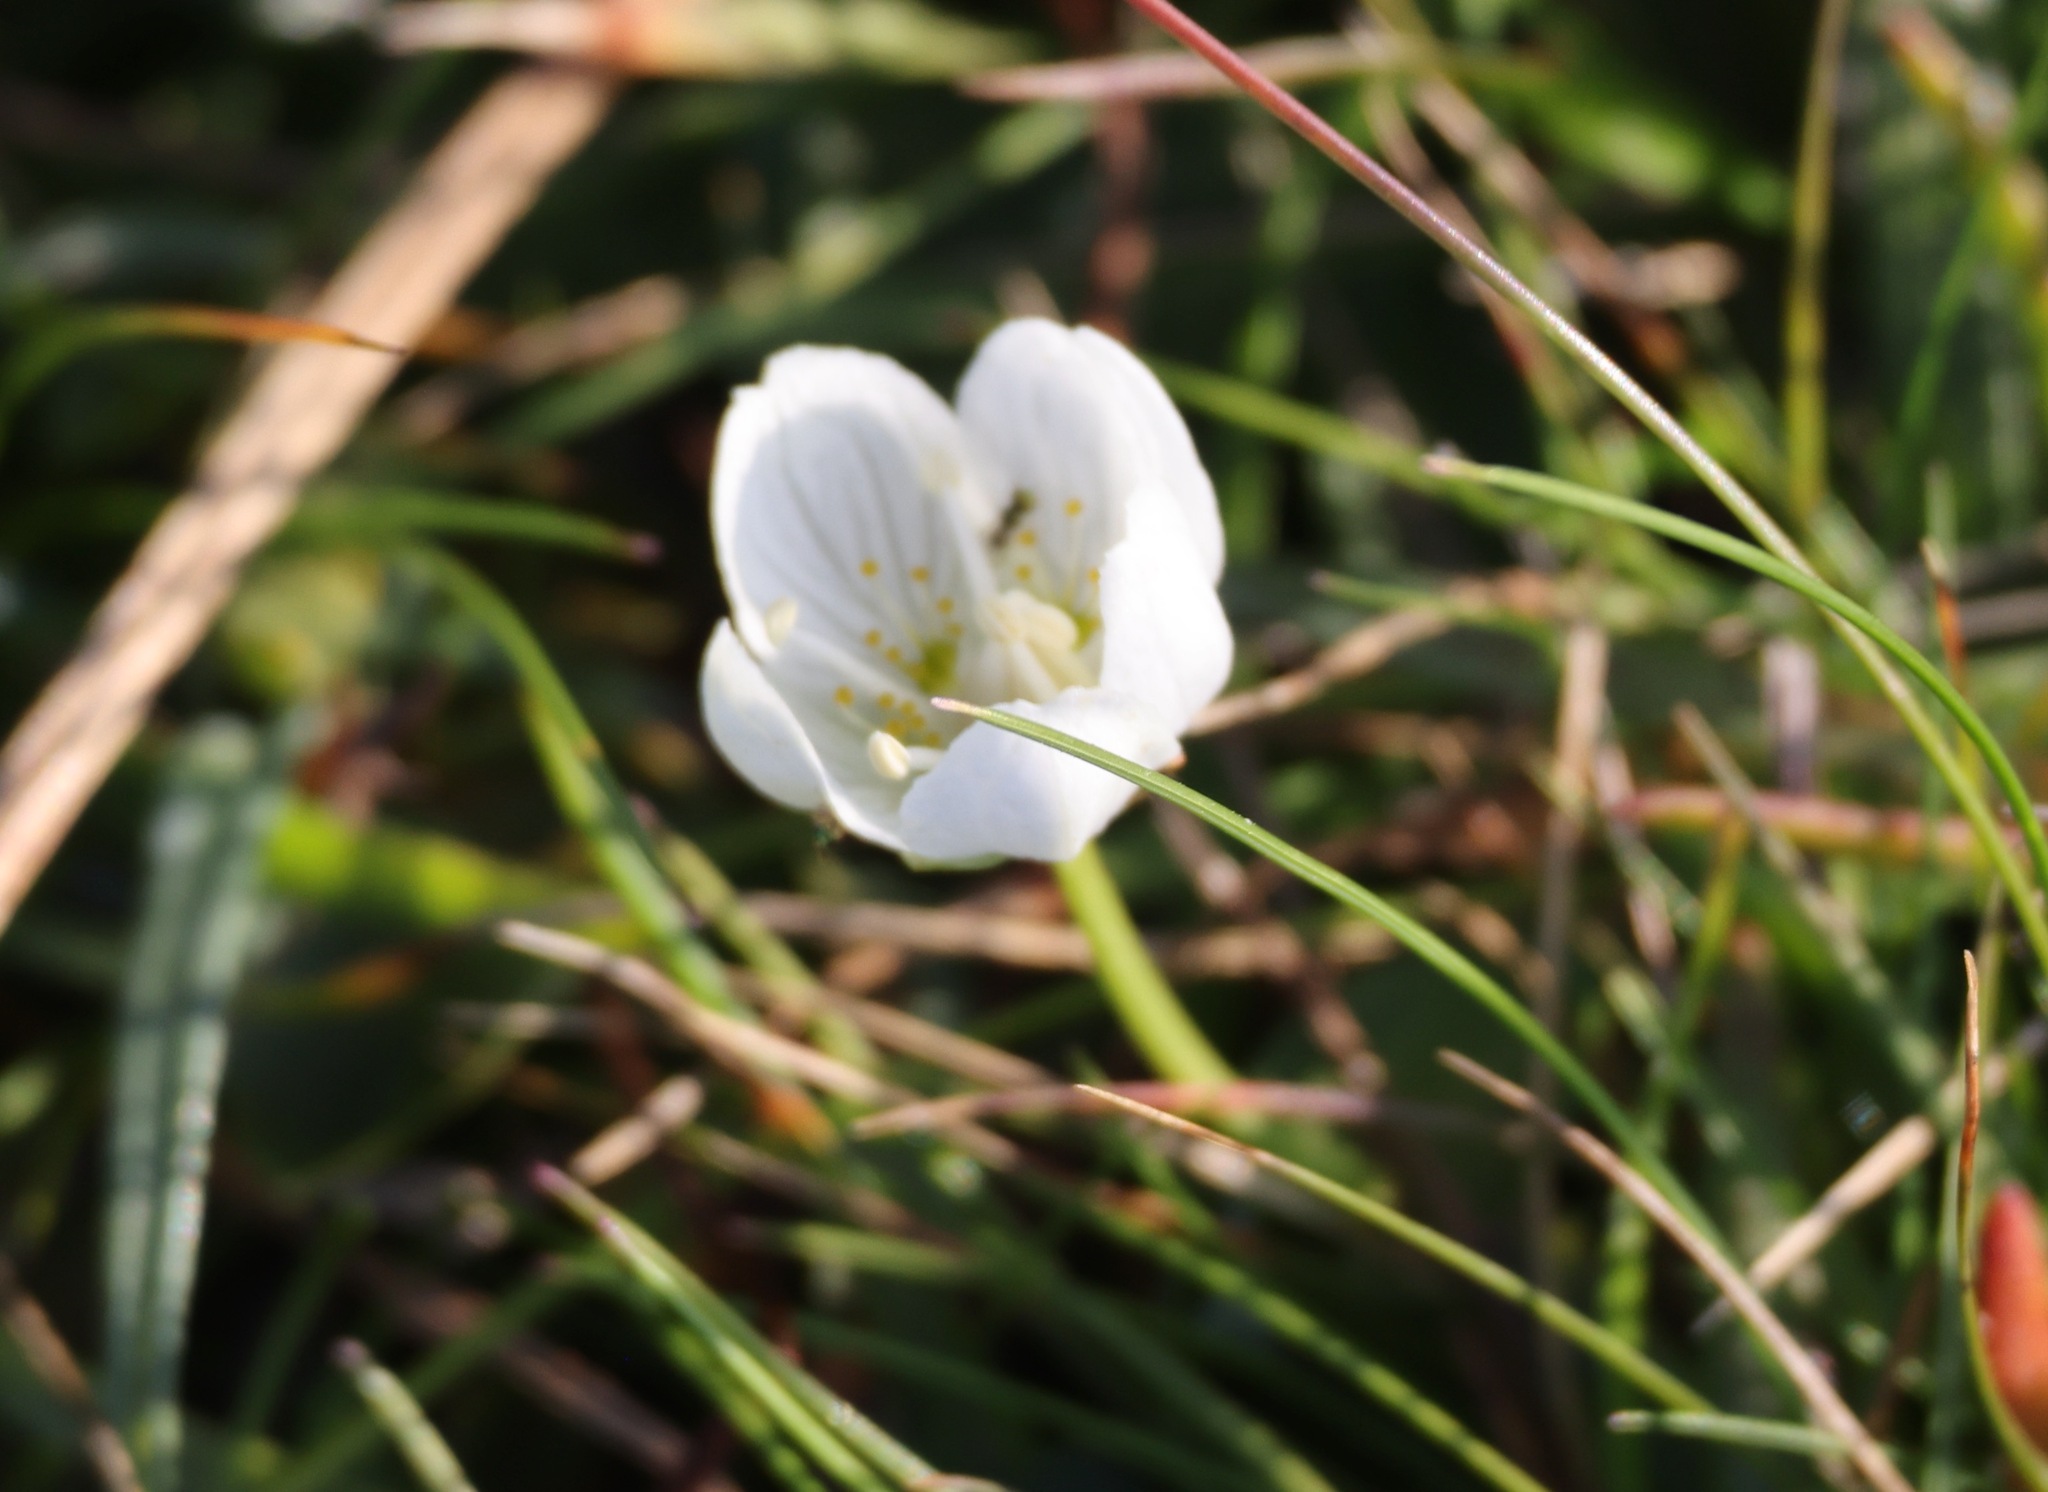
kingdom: Plantae
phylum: Tracheophyta
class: Magnoliopsida
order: Celastrales
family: Parnassiaceae
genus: Parnassia
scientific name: Parnassia palustris
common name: Grass-of-parnassus
